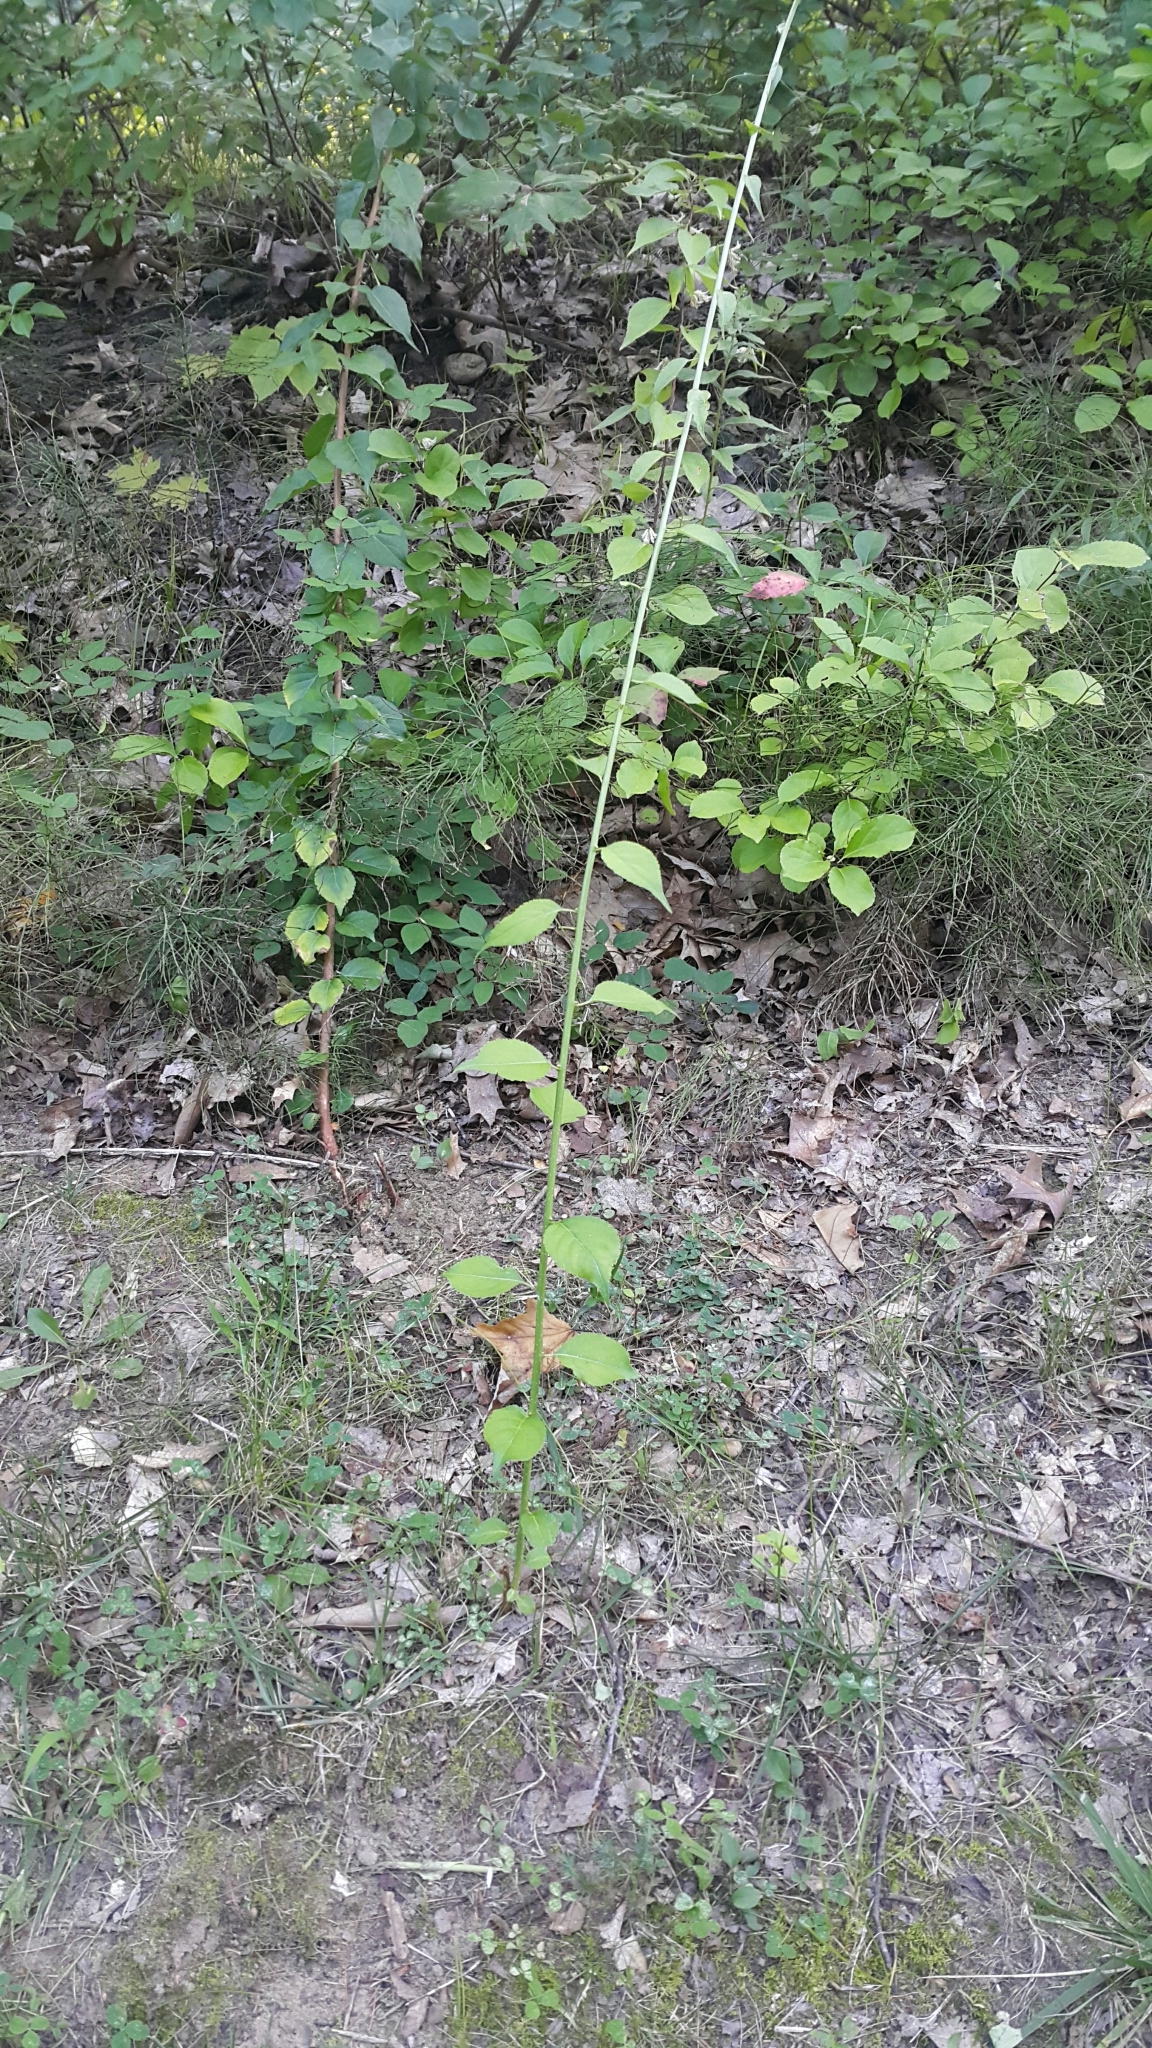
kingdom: Plantae
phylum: Tracheophyta
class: Magnoliopsida
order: Celastrales
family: Celastraceae
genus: Celastrus
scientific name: Celastrus orbiculatus
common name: Oriental bittersweet
